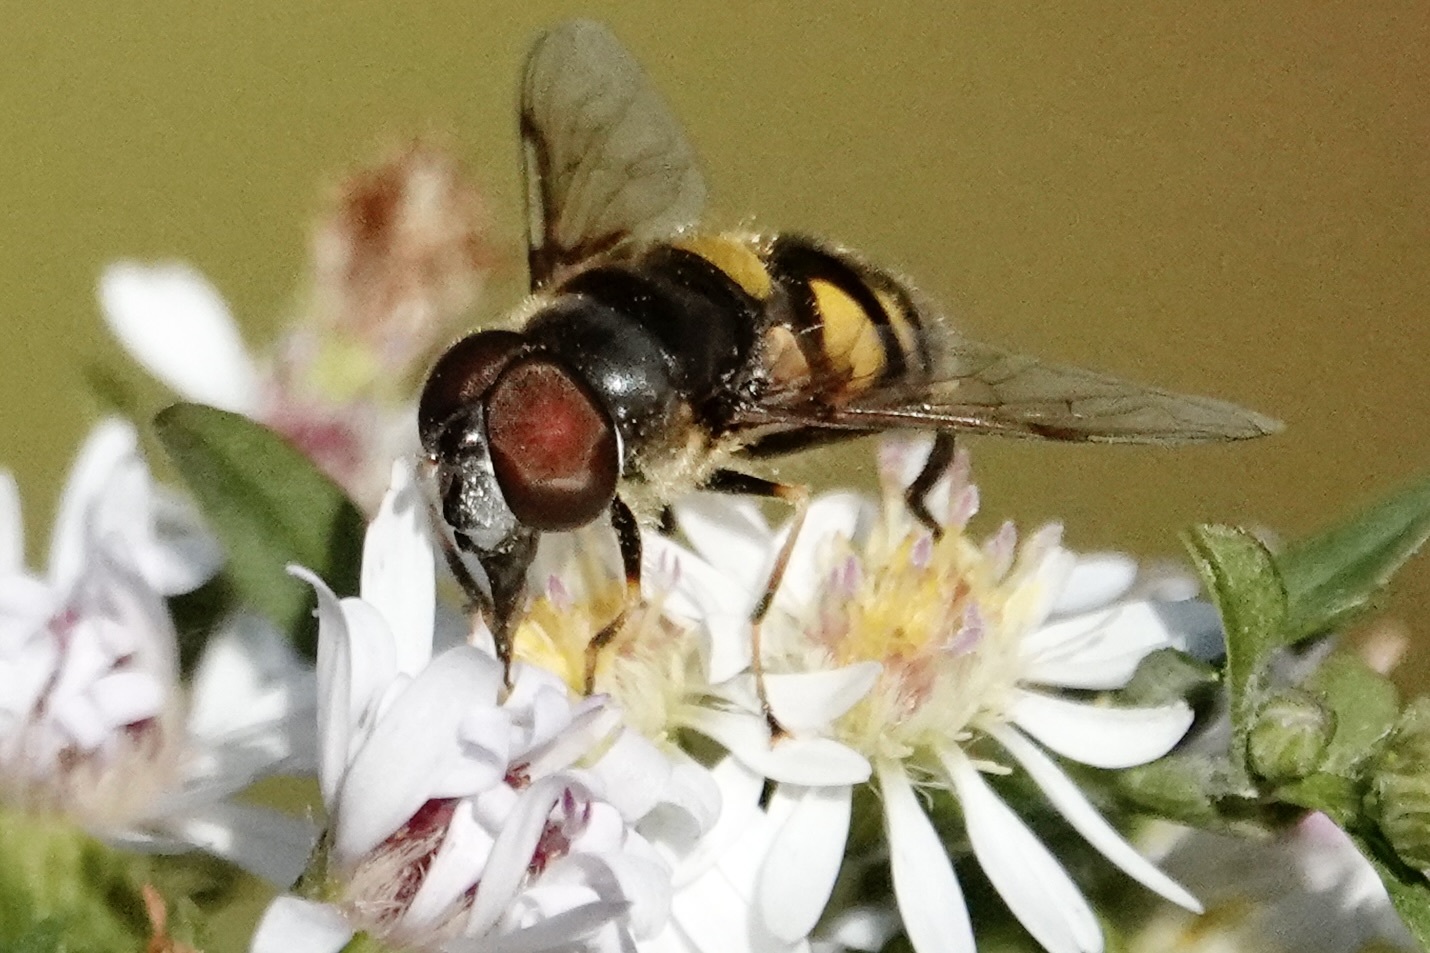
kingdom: Animalia
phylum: Arthropoda
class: Insecta
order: Diptera
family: Syrphidae
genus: Eristalis
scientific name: Eristalis transversa
